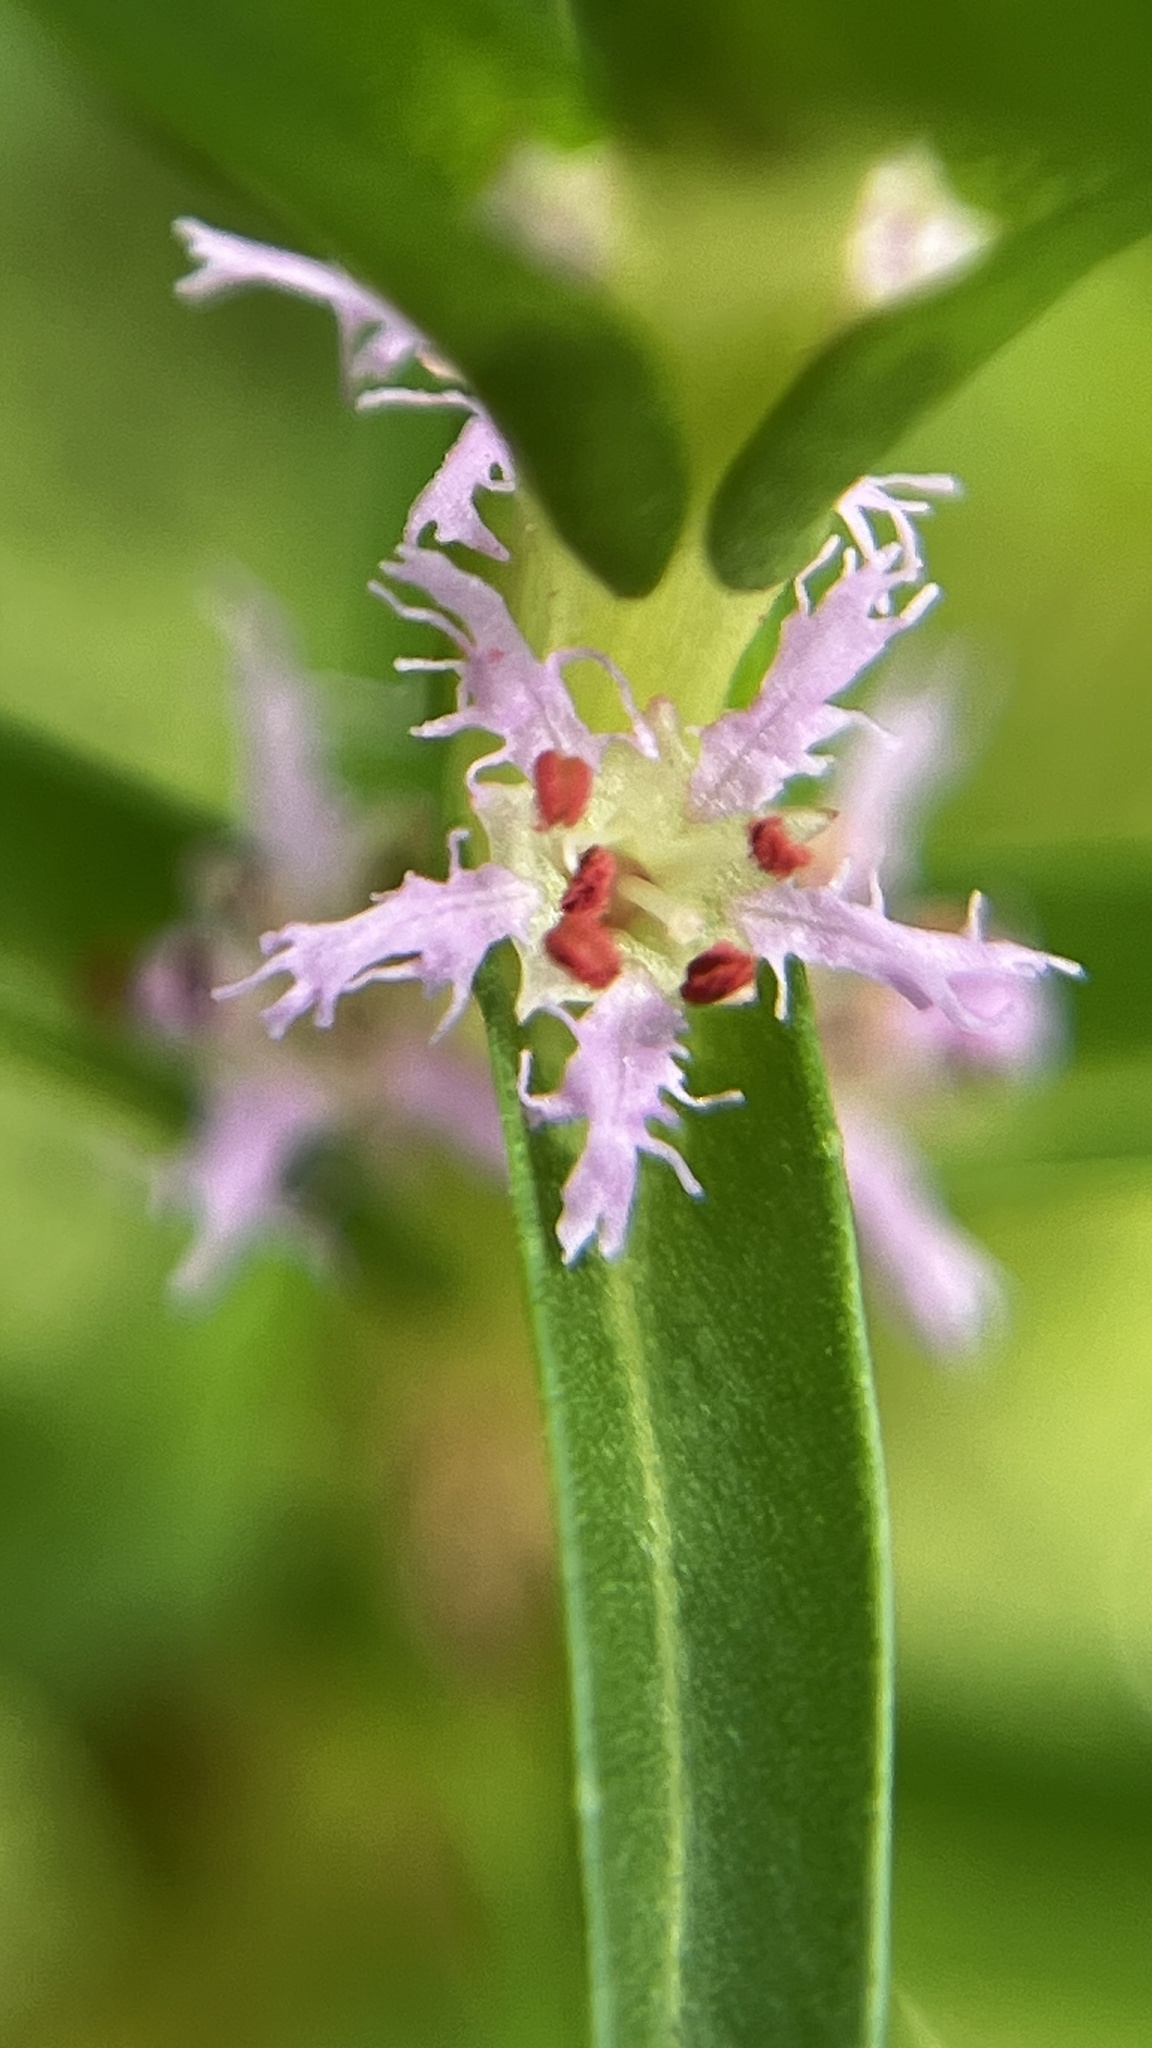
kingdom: Plantae
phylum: Tracheophyta
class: Magnoliopsida
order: Myrtales
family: Lythraceae
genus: Rotala
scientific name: Rotala fimbriata
